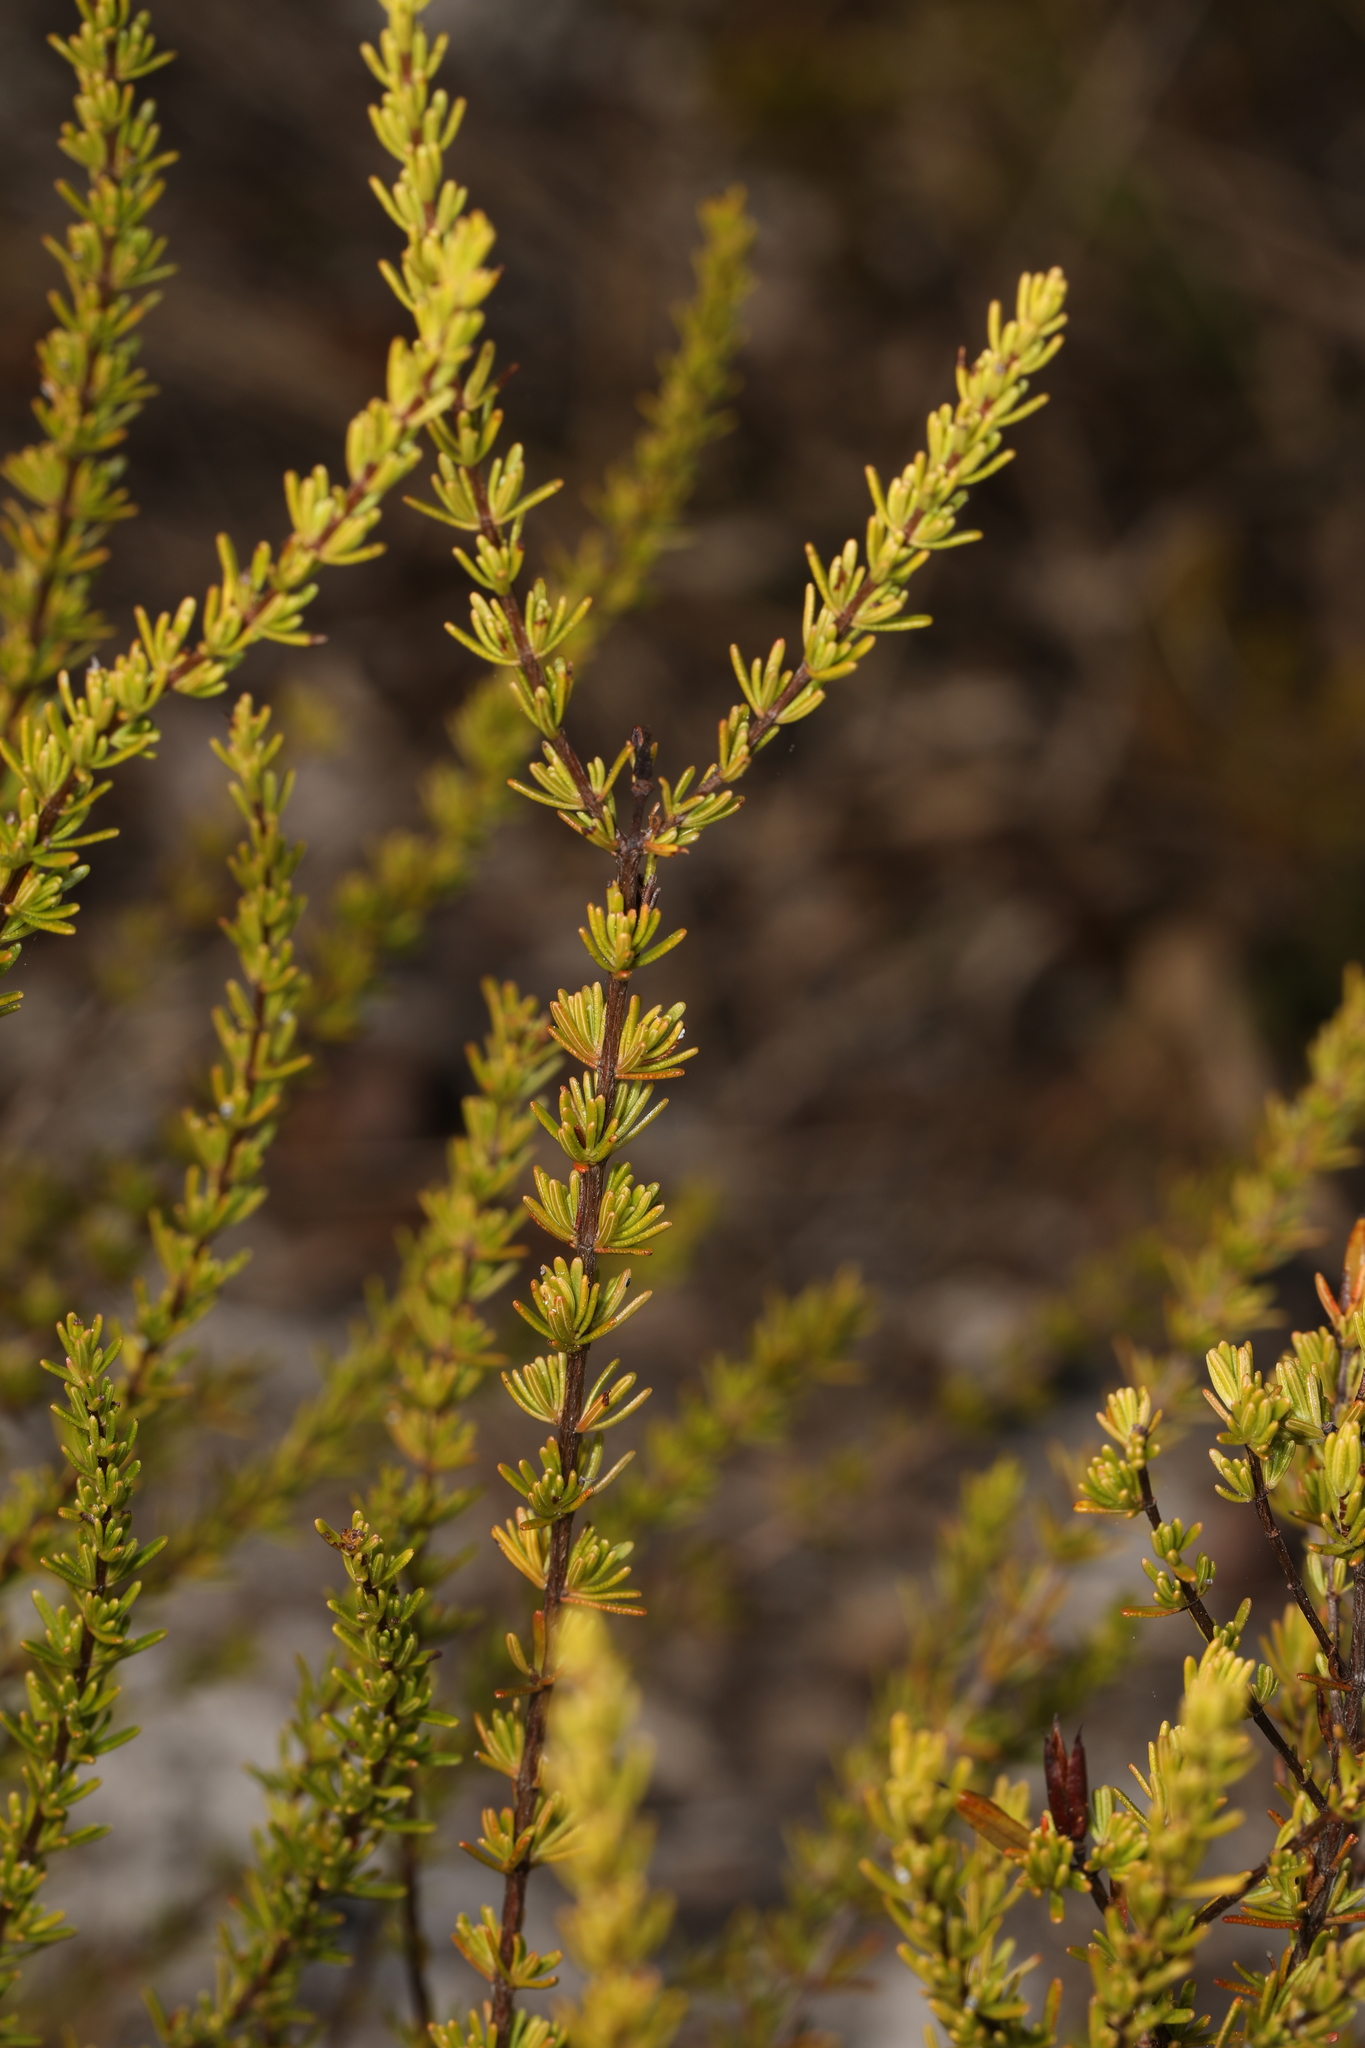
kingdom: Plantae
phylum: Tracheophyta
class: Magnoliopsida
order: Malpighiales
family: Hypericaceae
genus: Hypericum
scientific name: Hypericum tenuifolium
